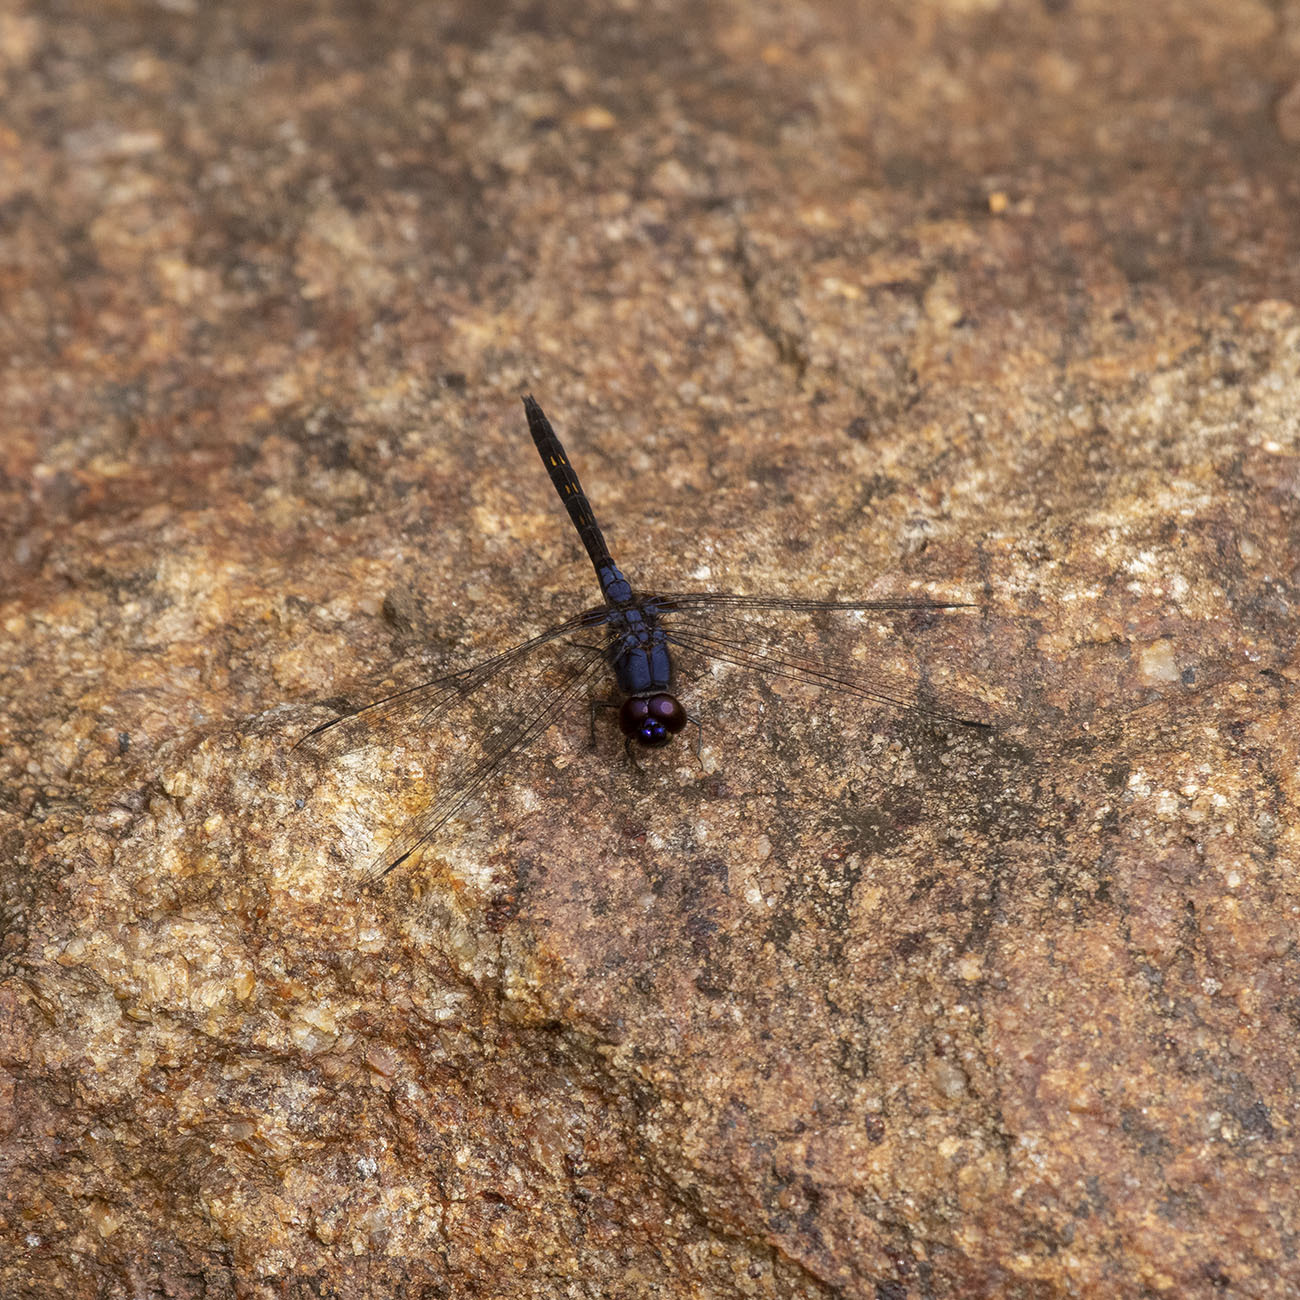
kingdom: Animalia
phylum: Arthropoda
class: Insecta
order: Odonata
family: Libellulidae
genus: Trithemis
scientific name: Trithemis festiva
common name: Indigo dropwing
